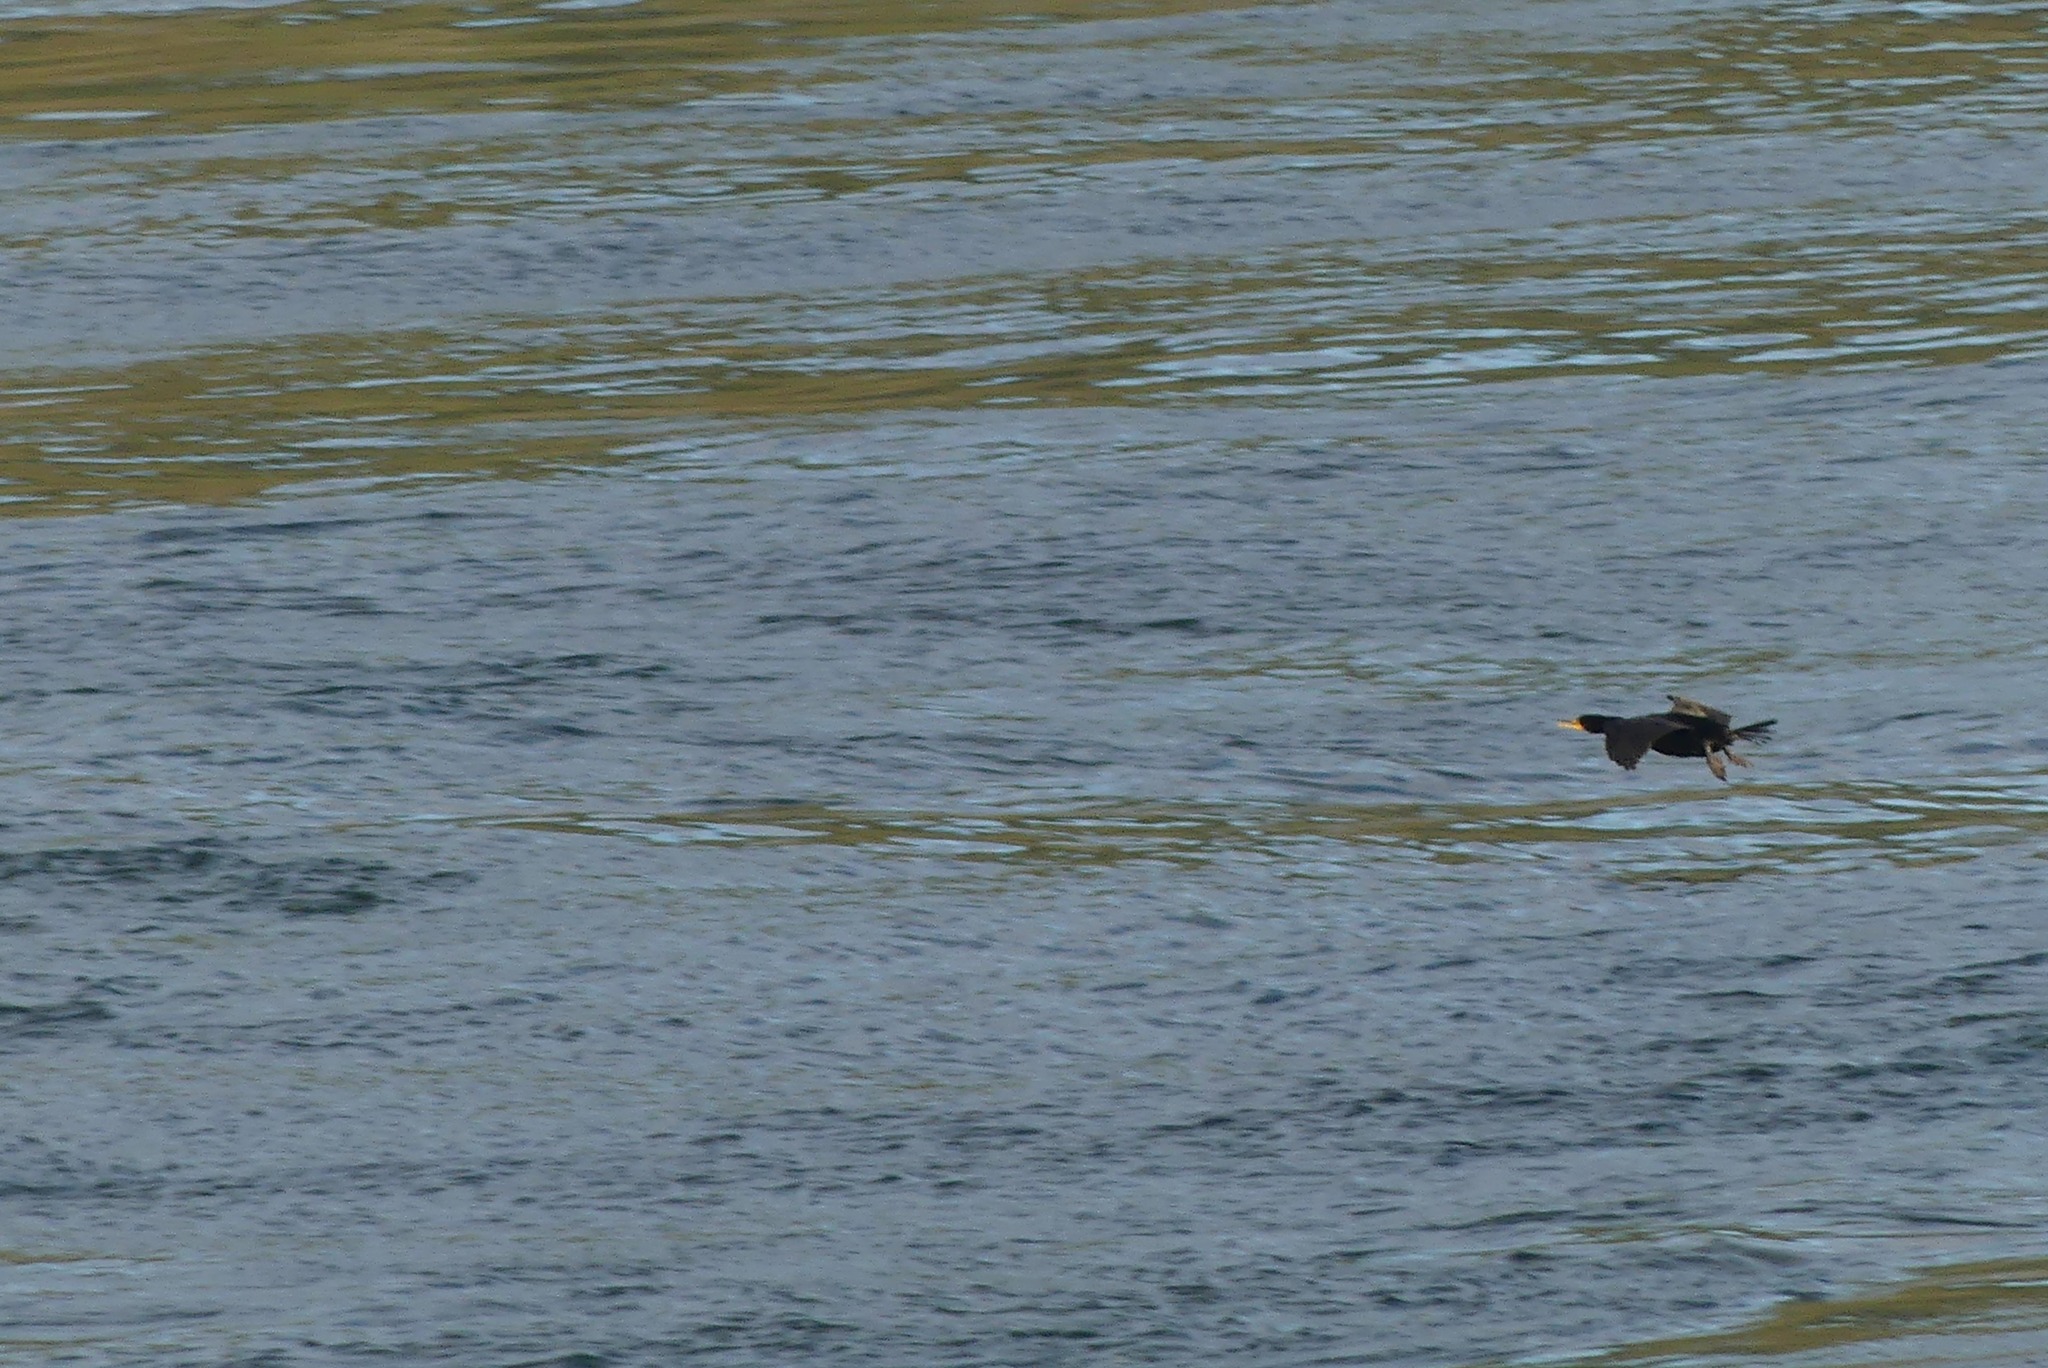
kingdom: Animalia
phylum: Chordata
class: Aves
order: Suliformes
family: Phalacrocoracidae
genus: Phalacrocorax
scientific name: Phalacrocorax auritus
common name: Double-crested cormorant
